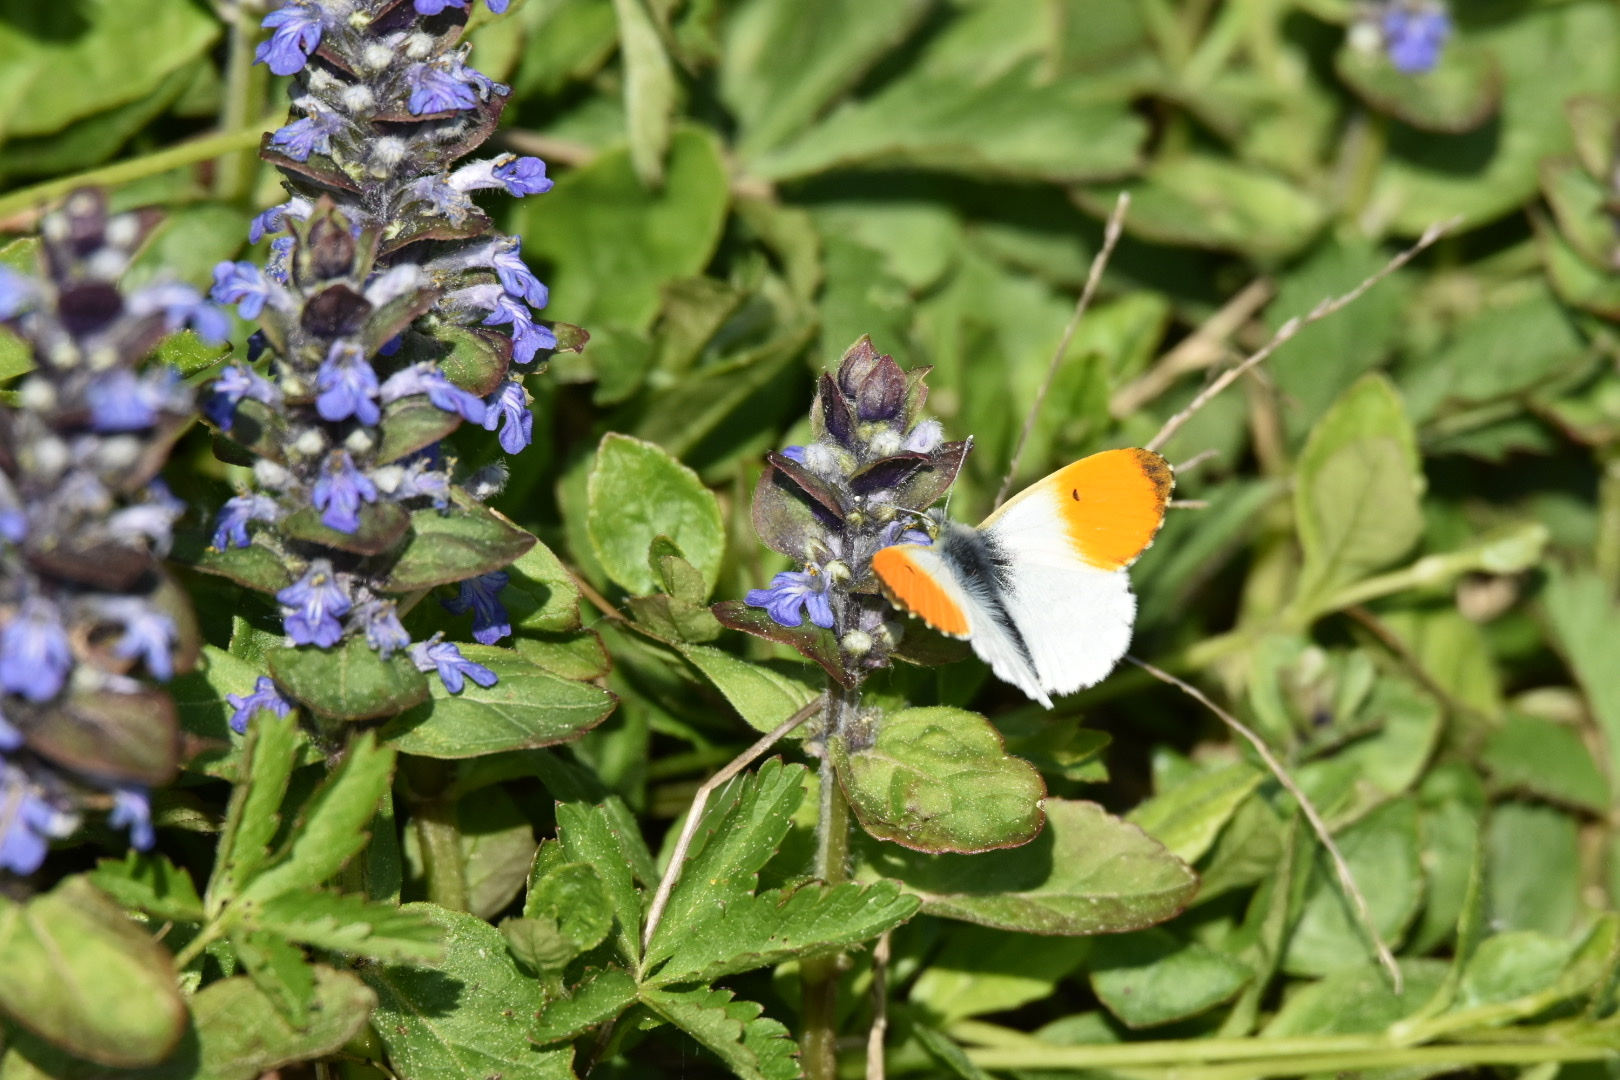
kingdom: Animalia
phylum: Arthropoda
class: Insecta
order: Lepidoptera
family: Pieridae
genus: Anthocharis
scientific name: Anthocharis cardamines
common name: Orange-tip
